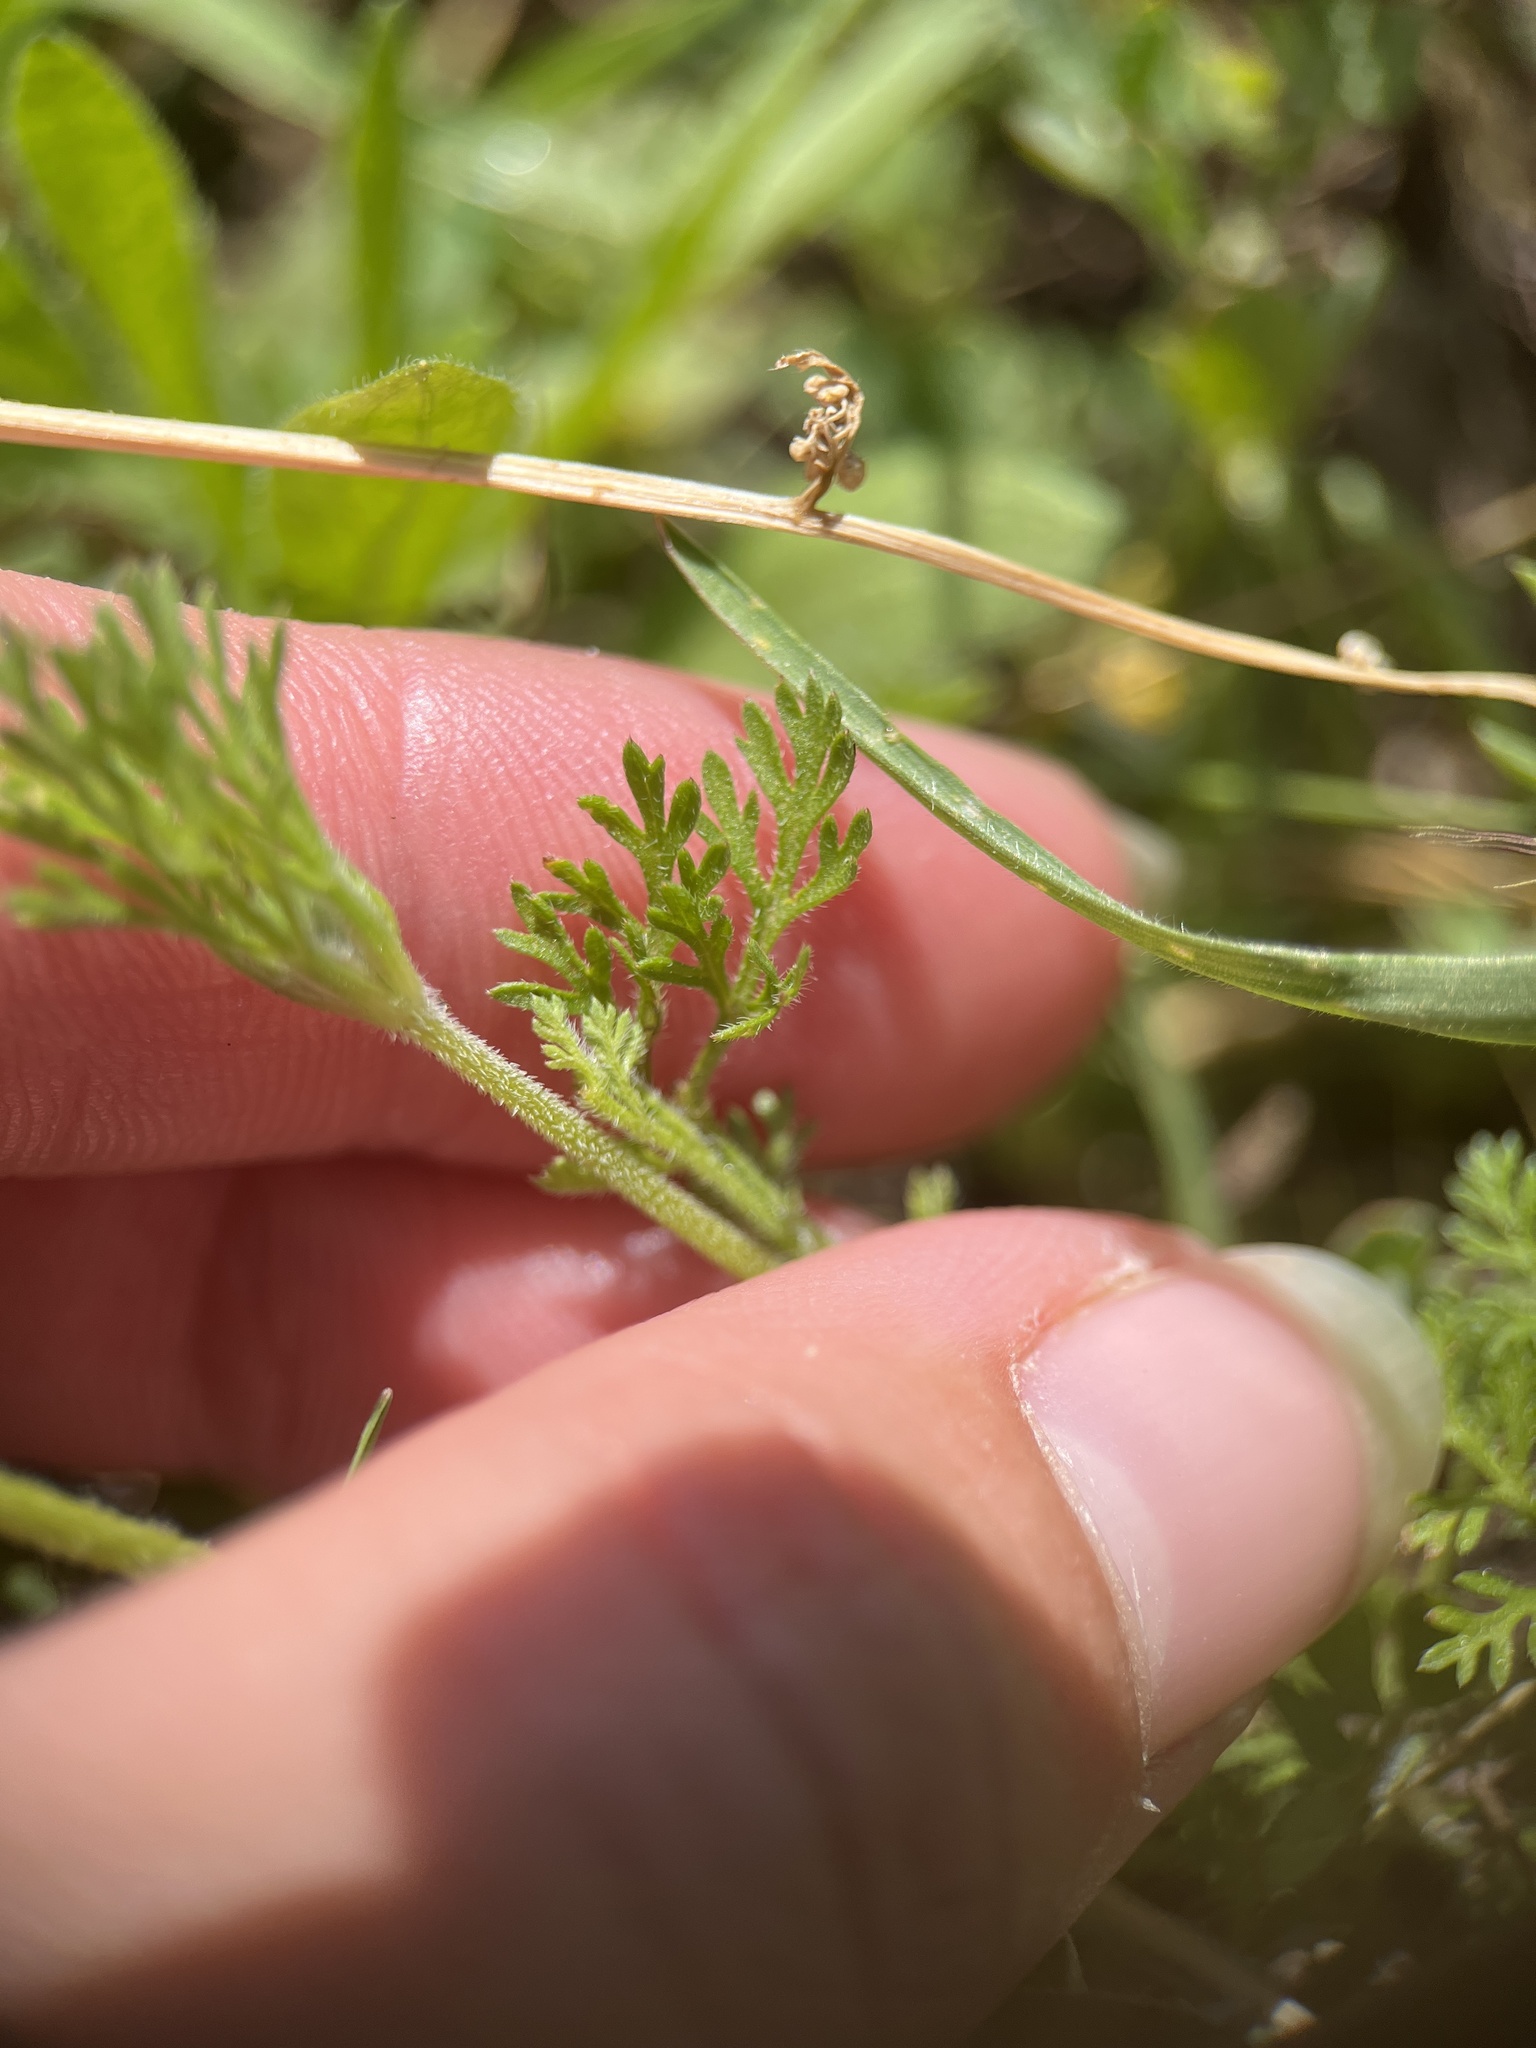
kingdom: Plantae
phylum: Tracheophyta
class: Magnoliopsida
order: Apiales
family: Apiaceae
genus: Daucus
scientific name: Daucus pusillus
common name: Southwest wild carrot
